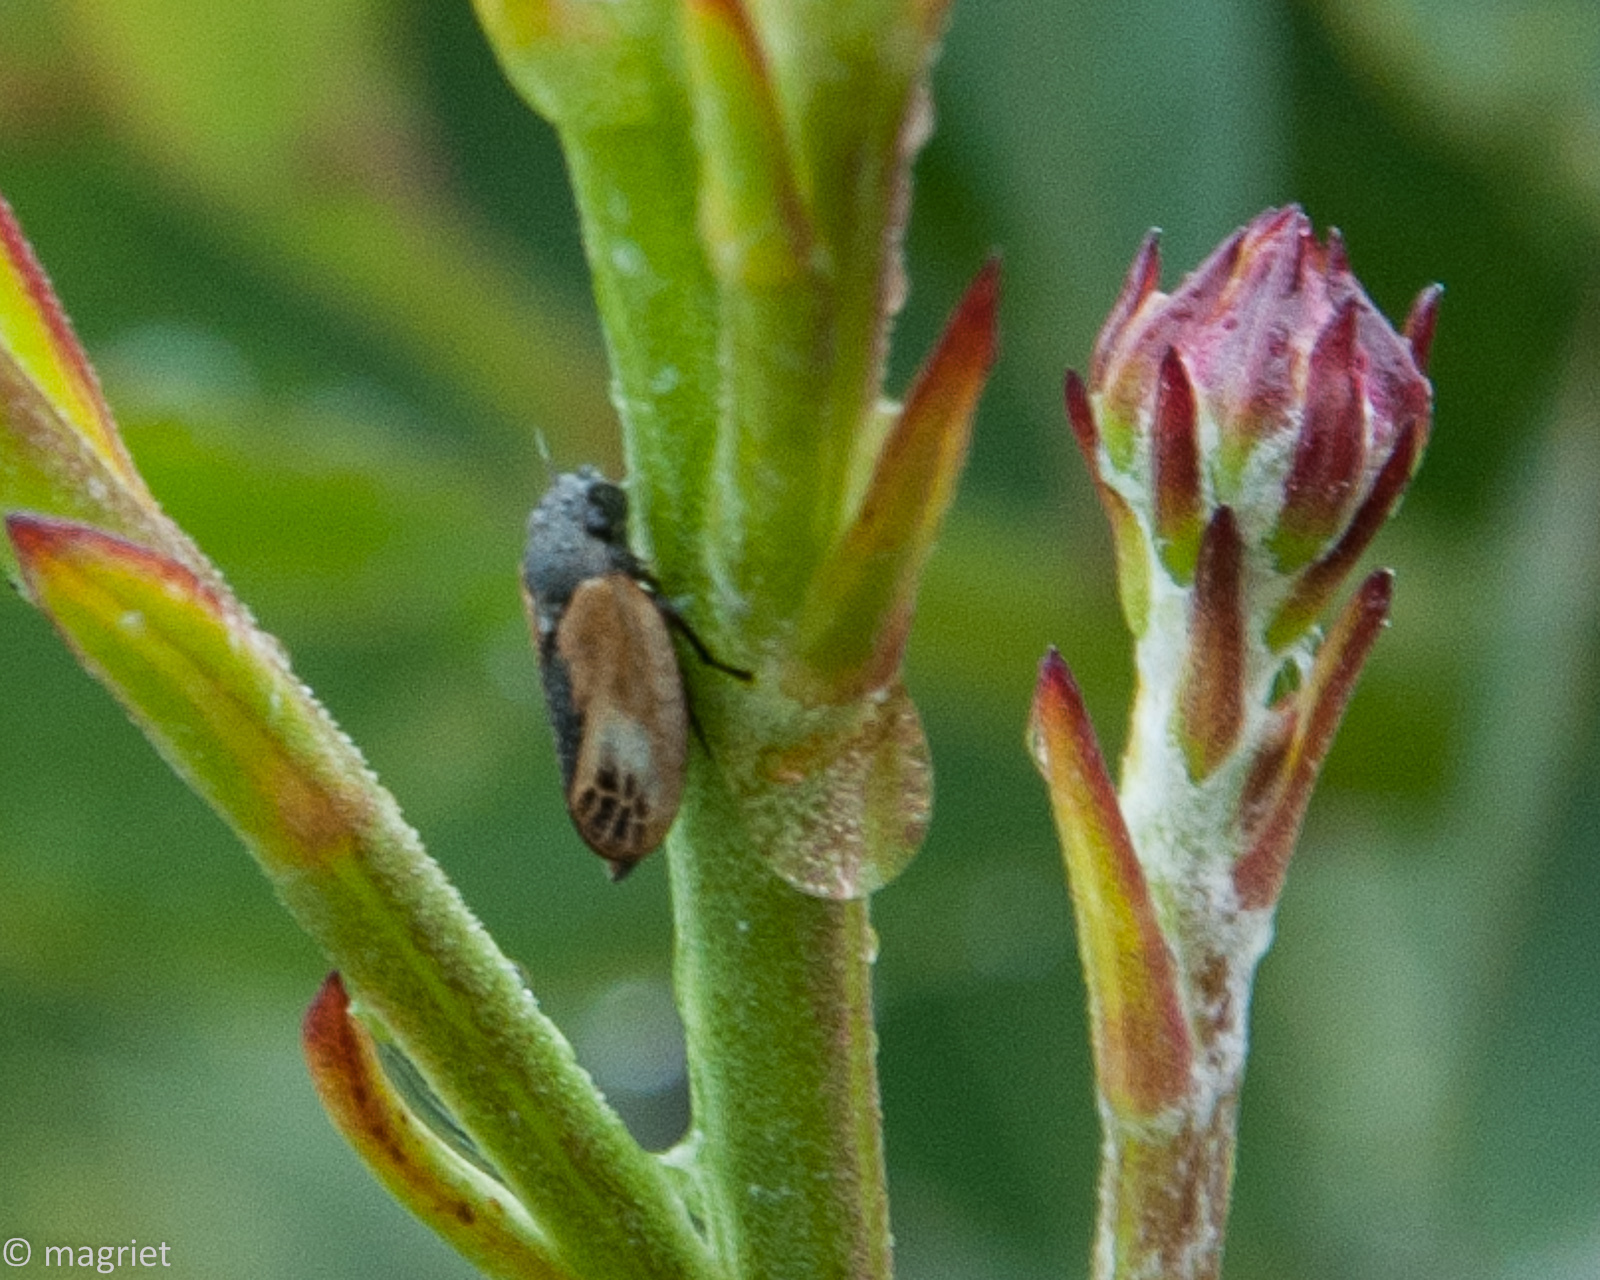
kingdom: Animalia
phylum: Arthropoda
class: Insecta
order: Hemiptera
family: Cercopidae
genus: Rhinaulax
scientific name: Rhinaulax analis
